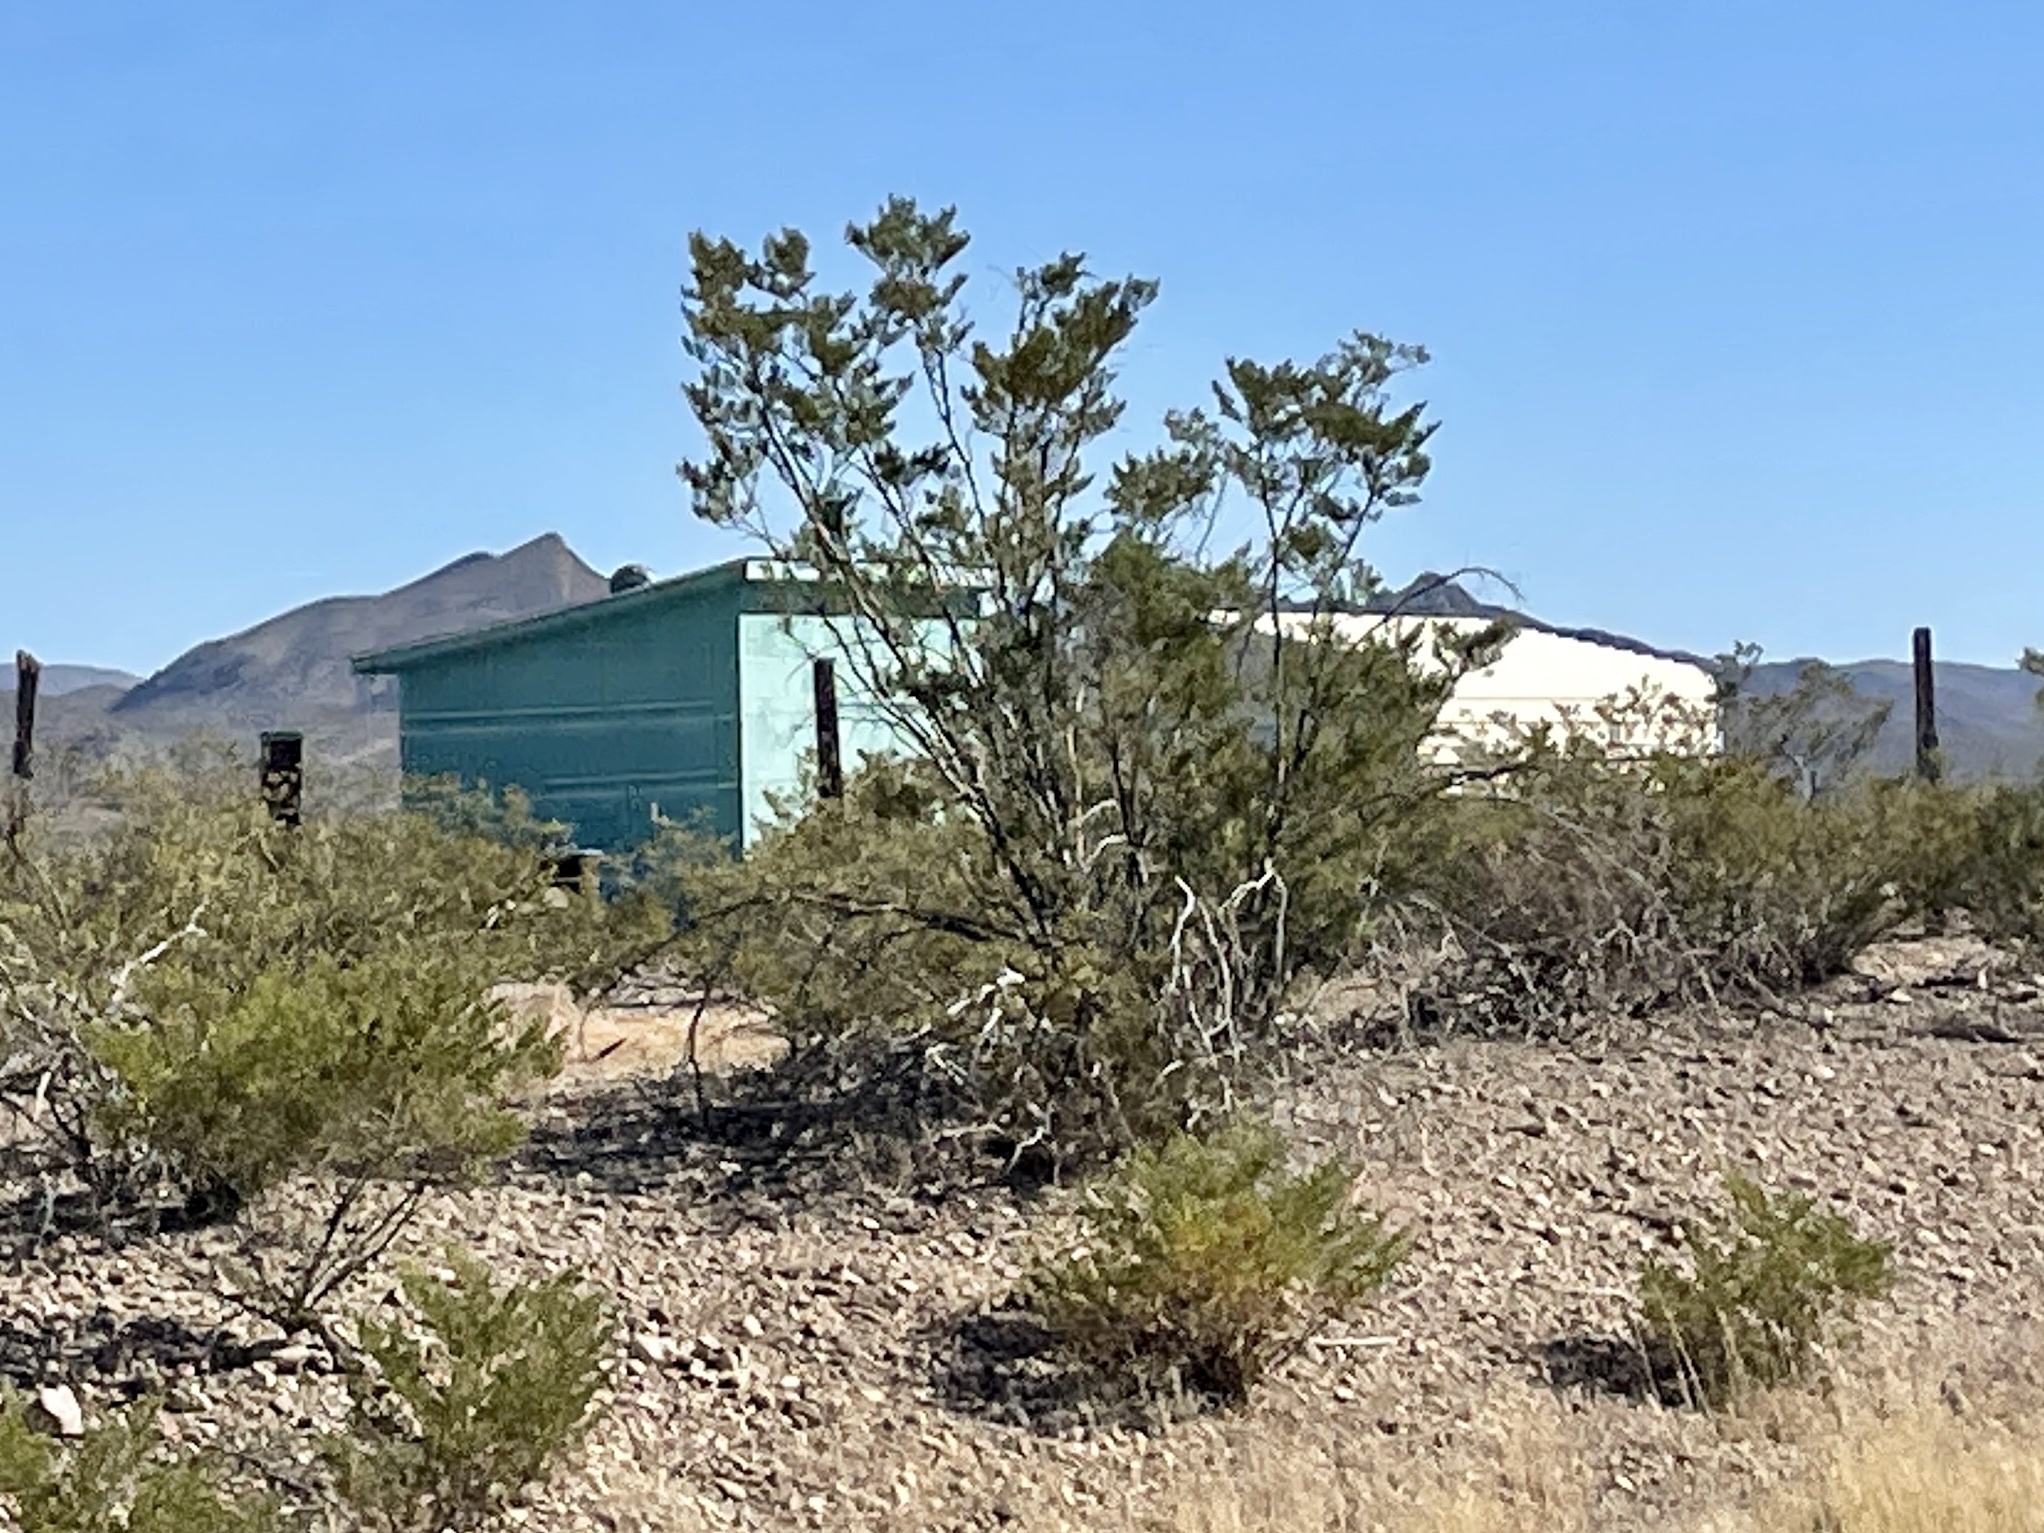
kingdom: Plantae
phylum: Tracheophyta
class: Magnoliopsida
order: Zygophyllales
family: Zygophyllaceae
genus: Larrea
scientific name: Larrea tridentata
